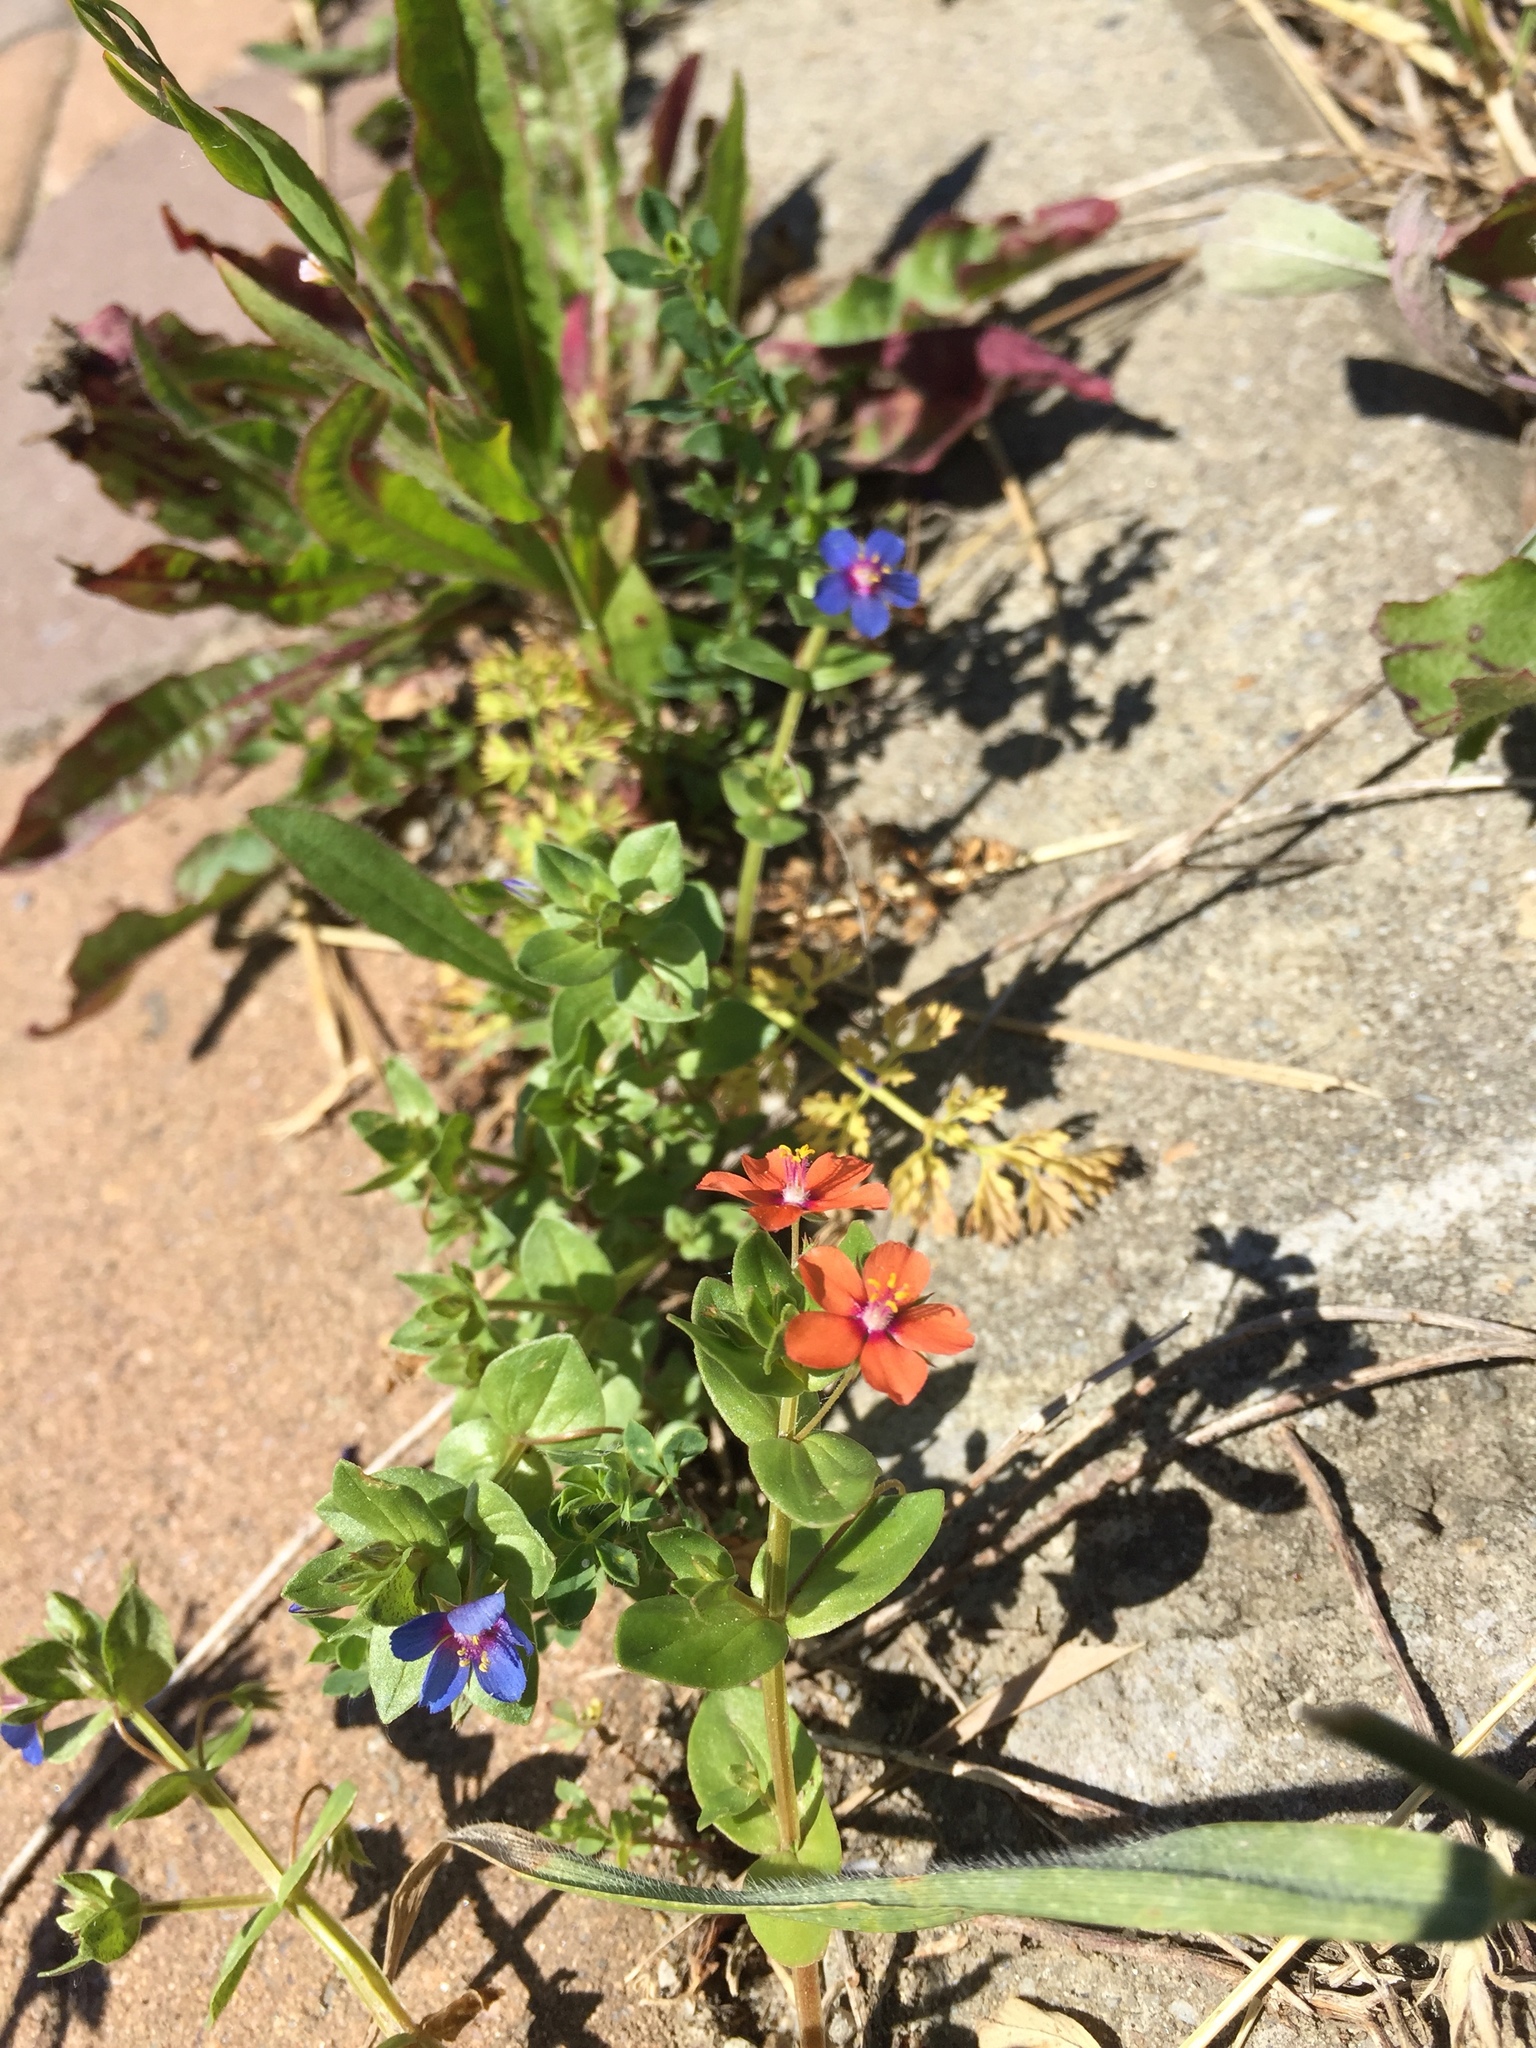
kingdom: Plantae
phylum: Tracheophyta
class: Magnoliopsida
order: Ericales
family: Primulaceae
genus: Lysimachia
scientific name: Lysimachia arvensis
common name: Scarlet pimpernel
